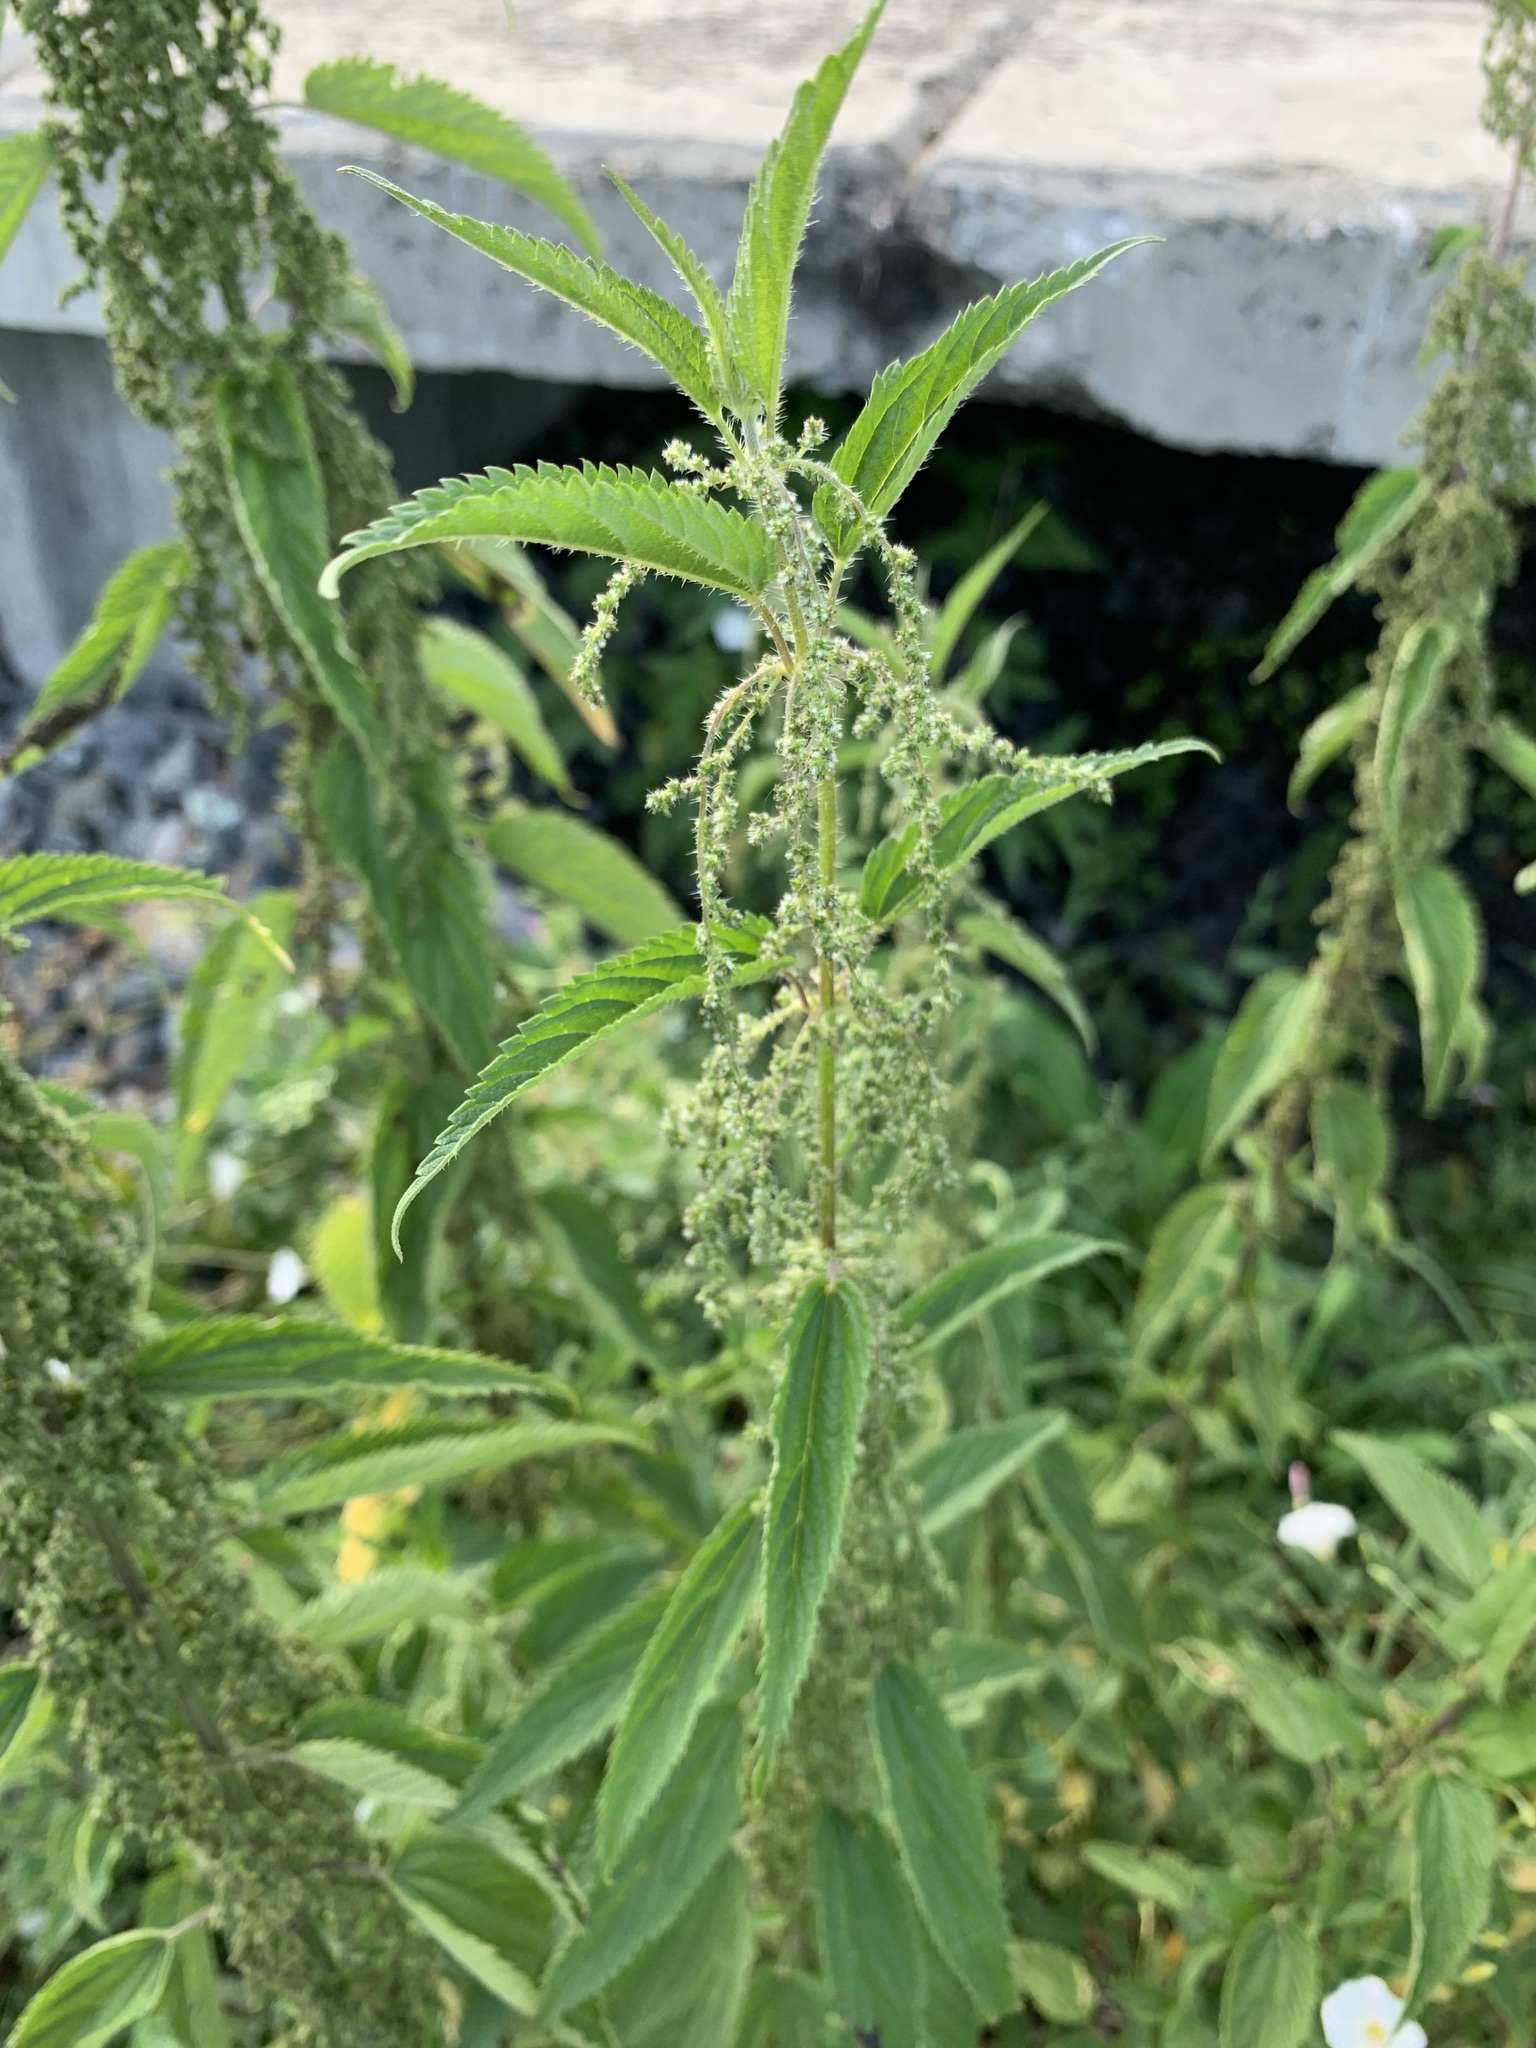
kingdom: Plantae
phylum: Tracheophyta
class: Magnoliopsida
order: Rosales
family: Urticaceae
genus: Urtica
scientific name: Urtica dioica
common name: Common nettle
